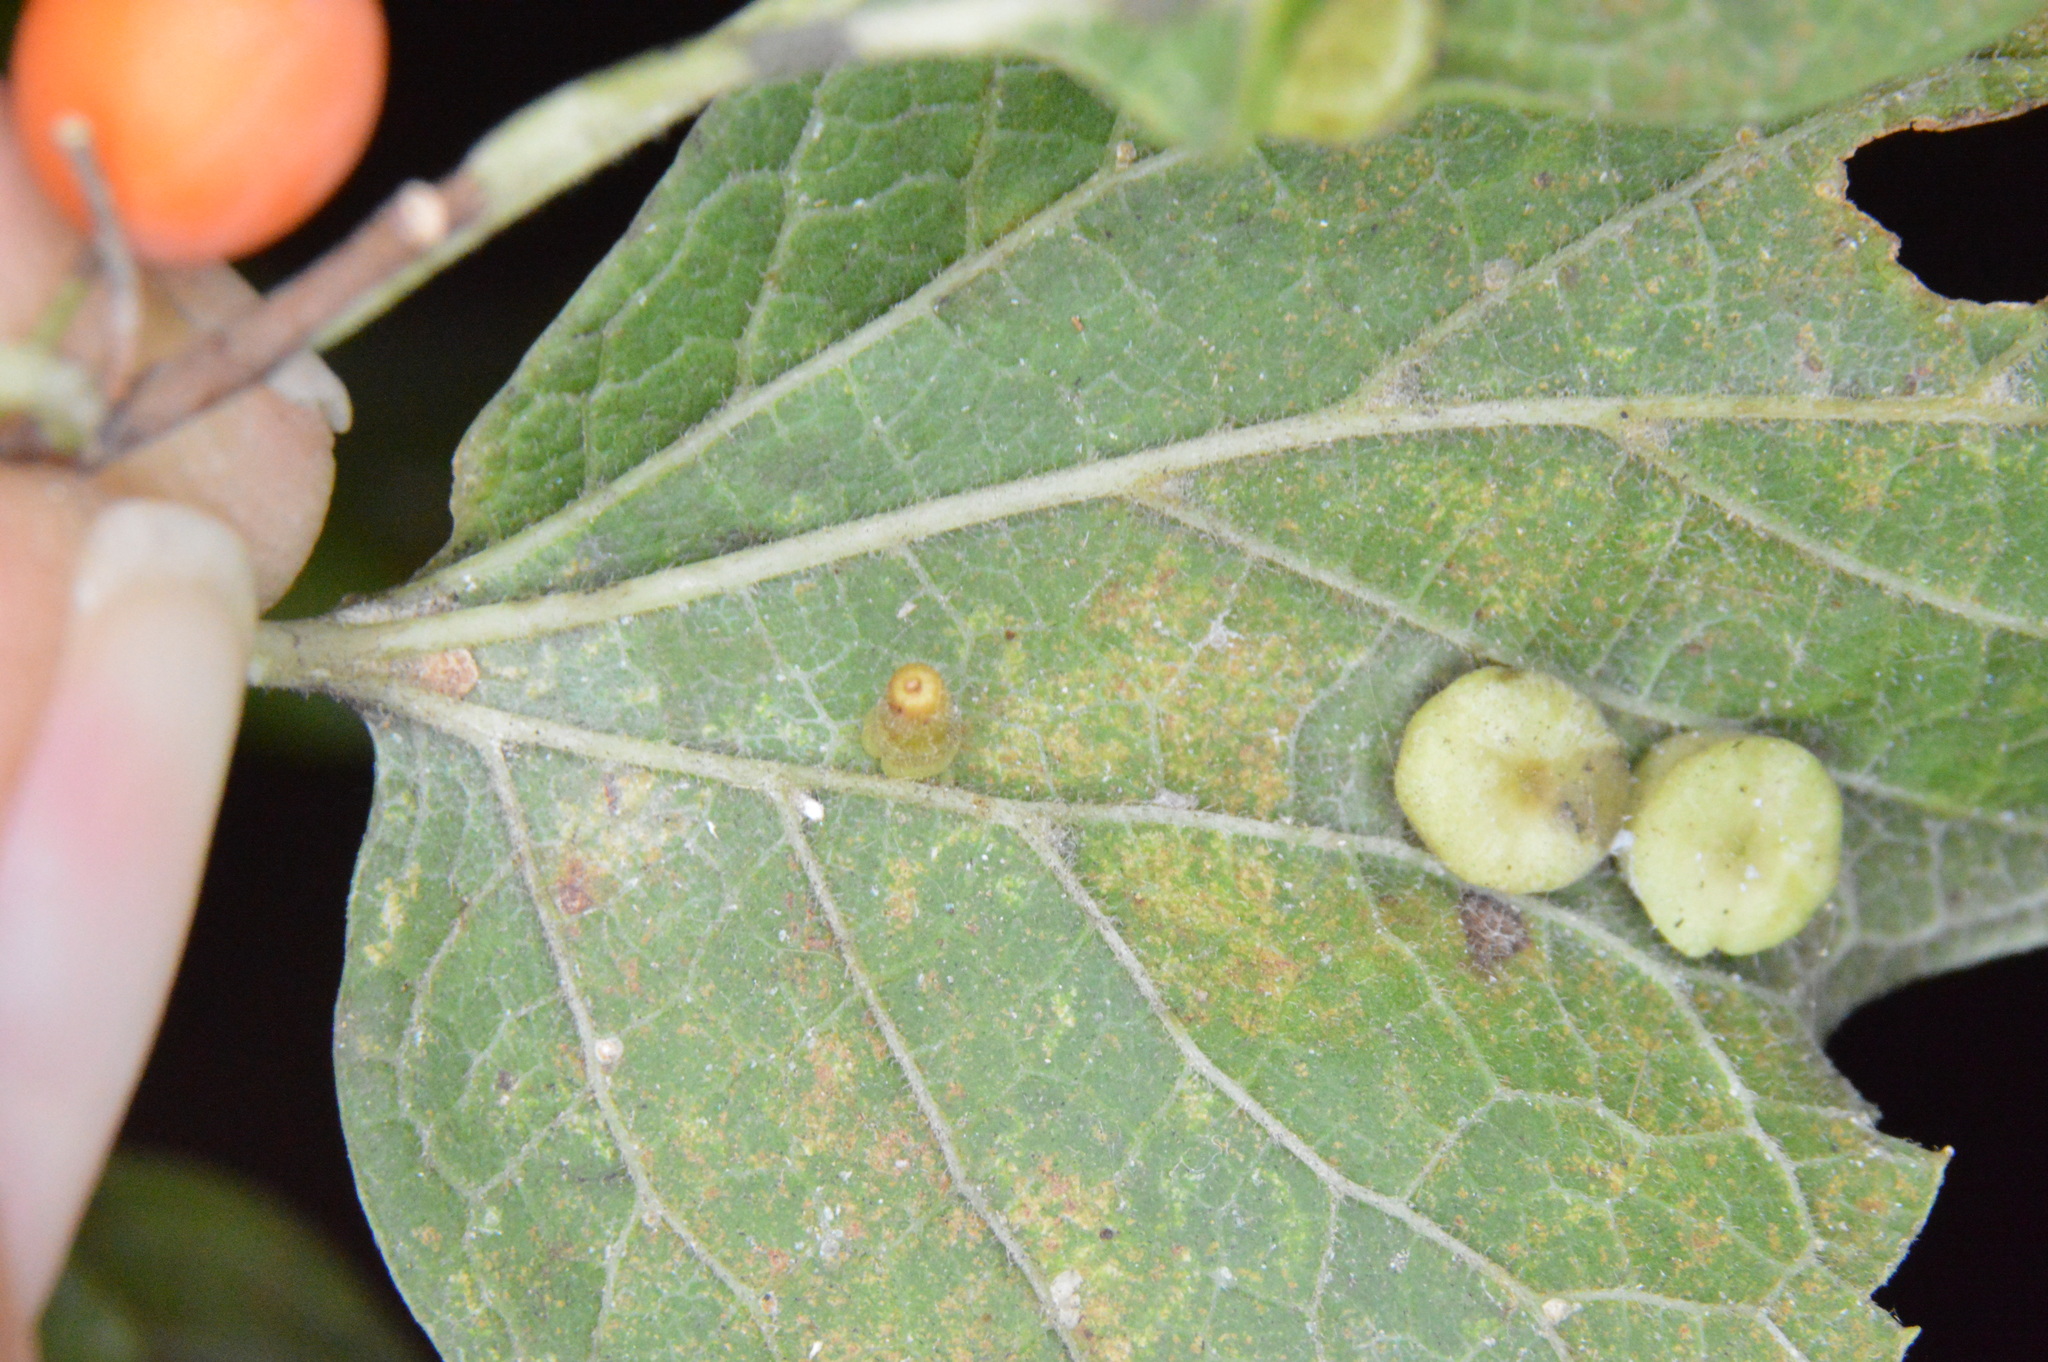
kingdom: Animalia
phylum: Arthropoda
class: Insecta
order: Diptera
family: Cecidomyiidae
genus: Celticecis
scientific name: Celticecis aciculata
